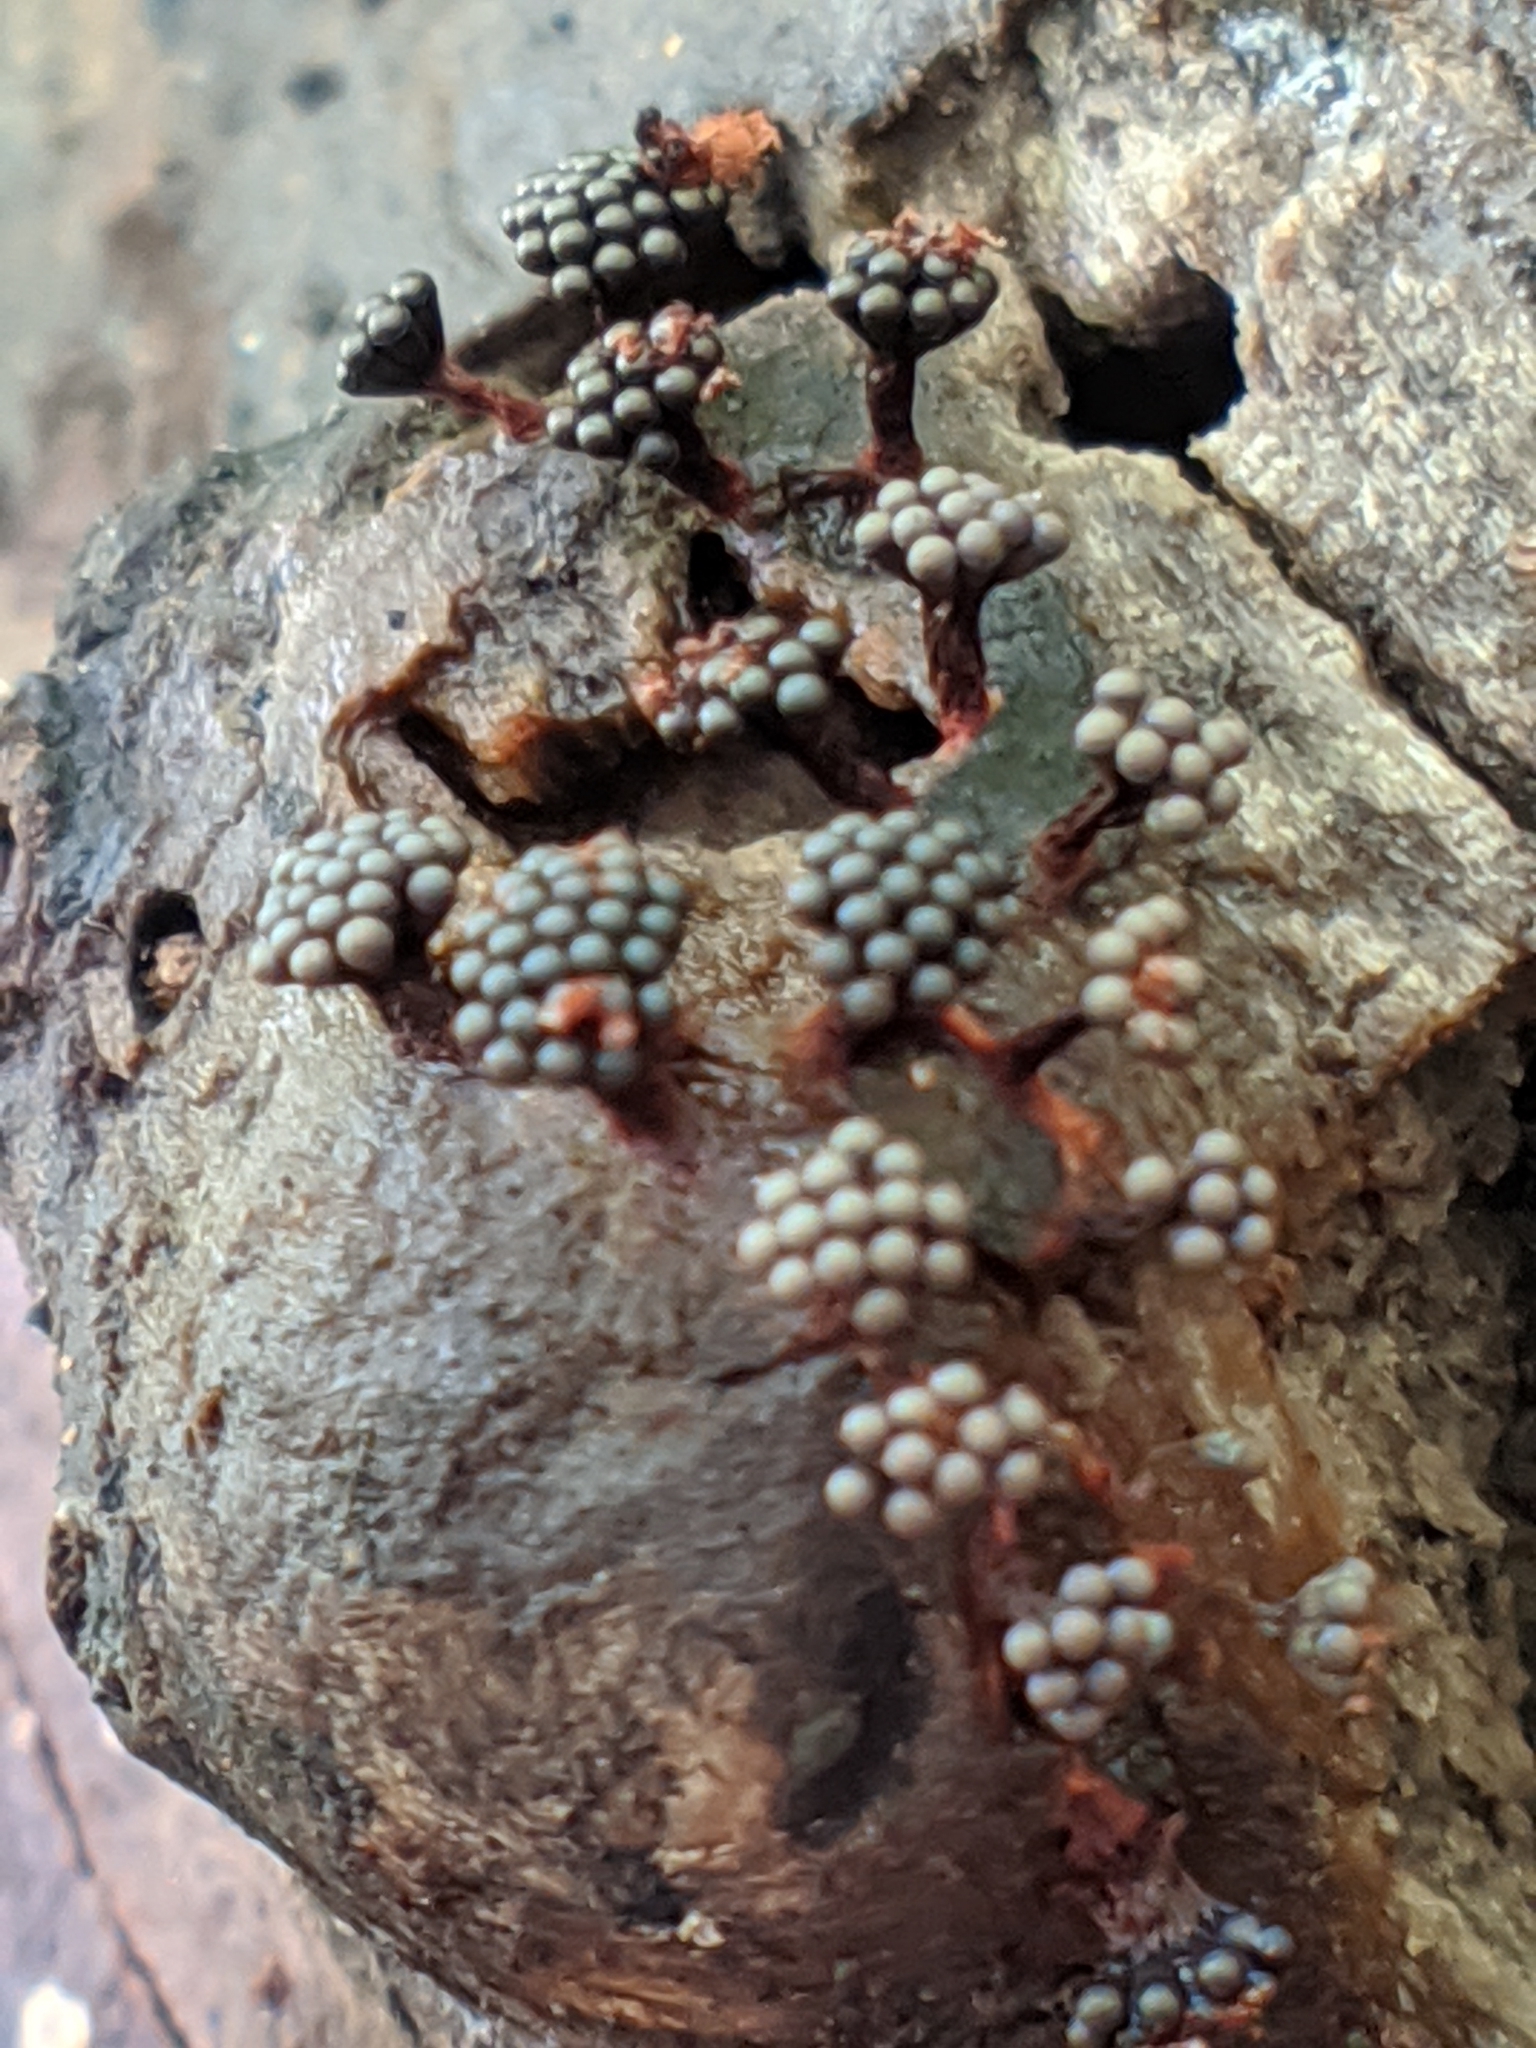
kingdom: Protozoa
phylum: Mycetozoa
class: Myxomycetes
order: Trichiales
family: Trichiaceae
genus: Metatrichia
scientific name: Metatrichia vesparia
